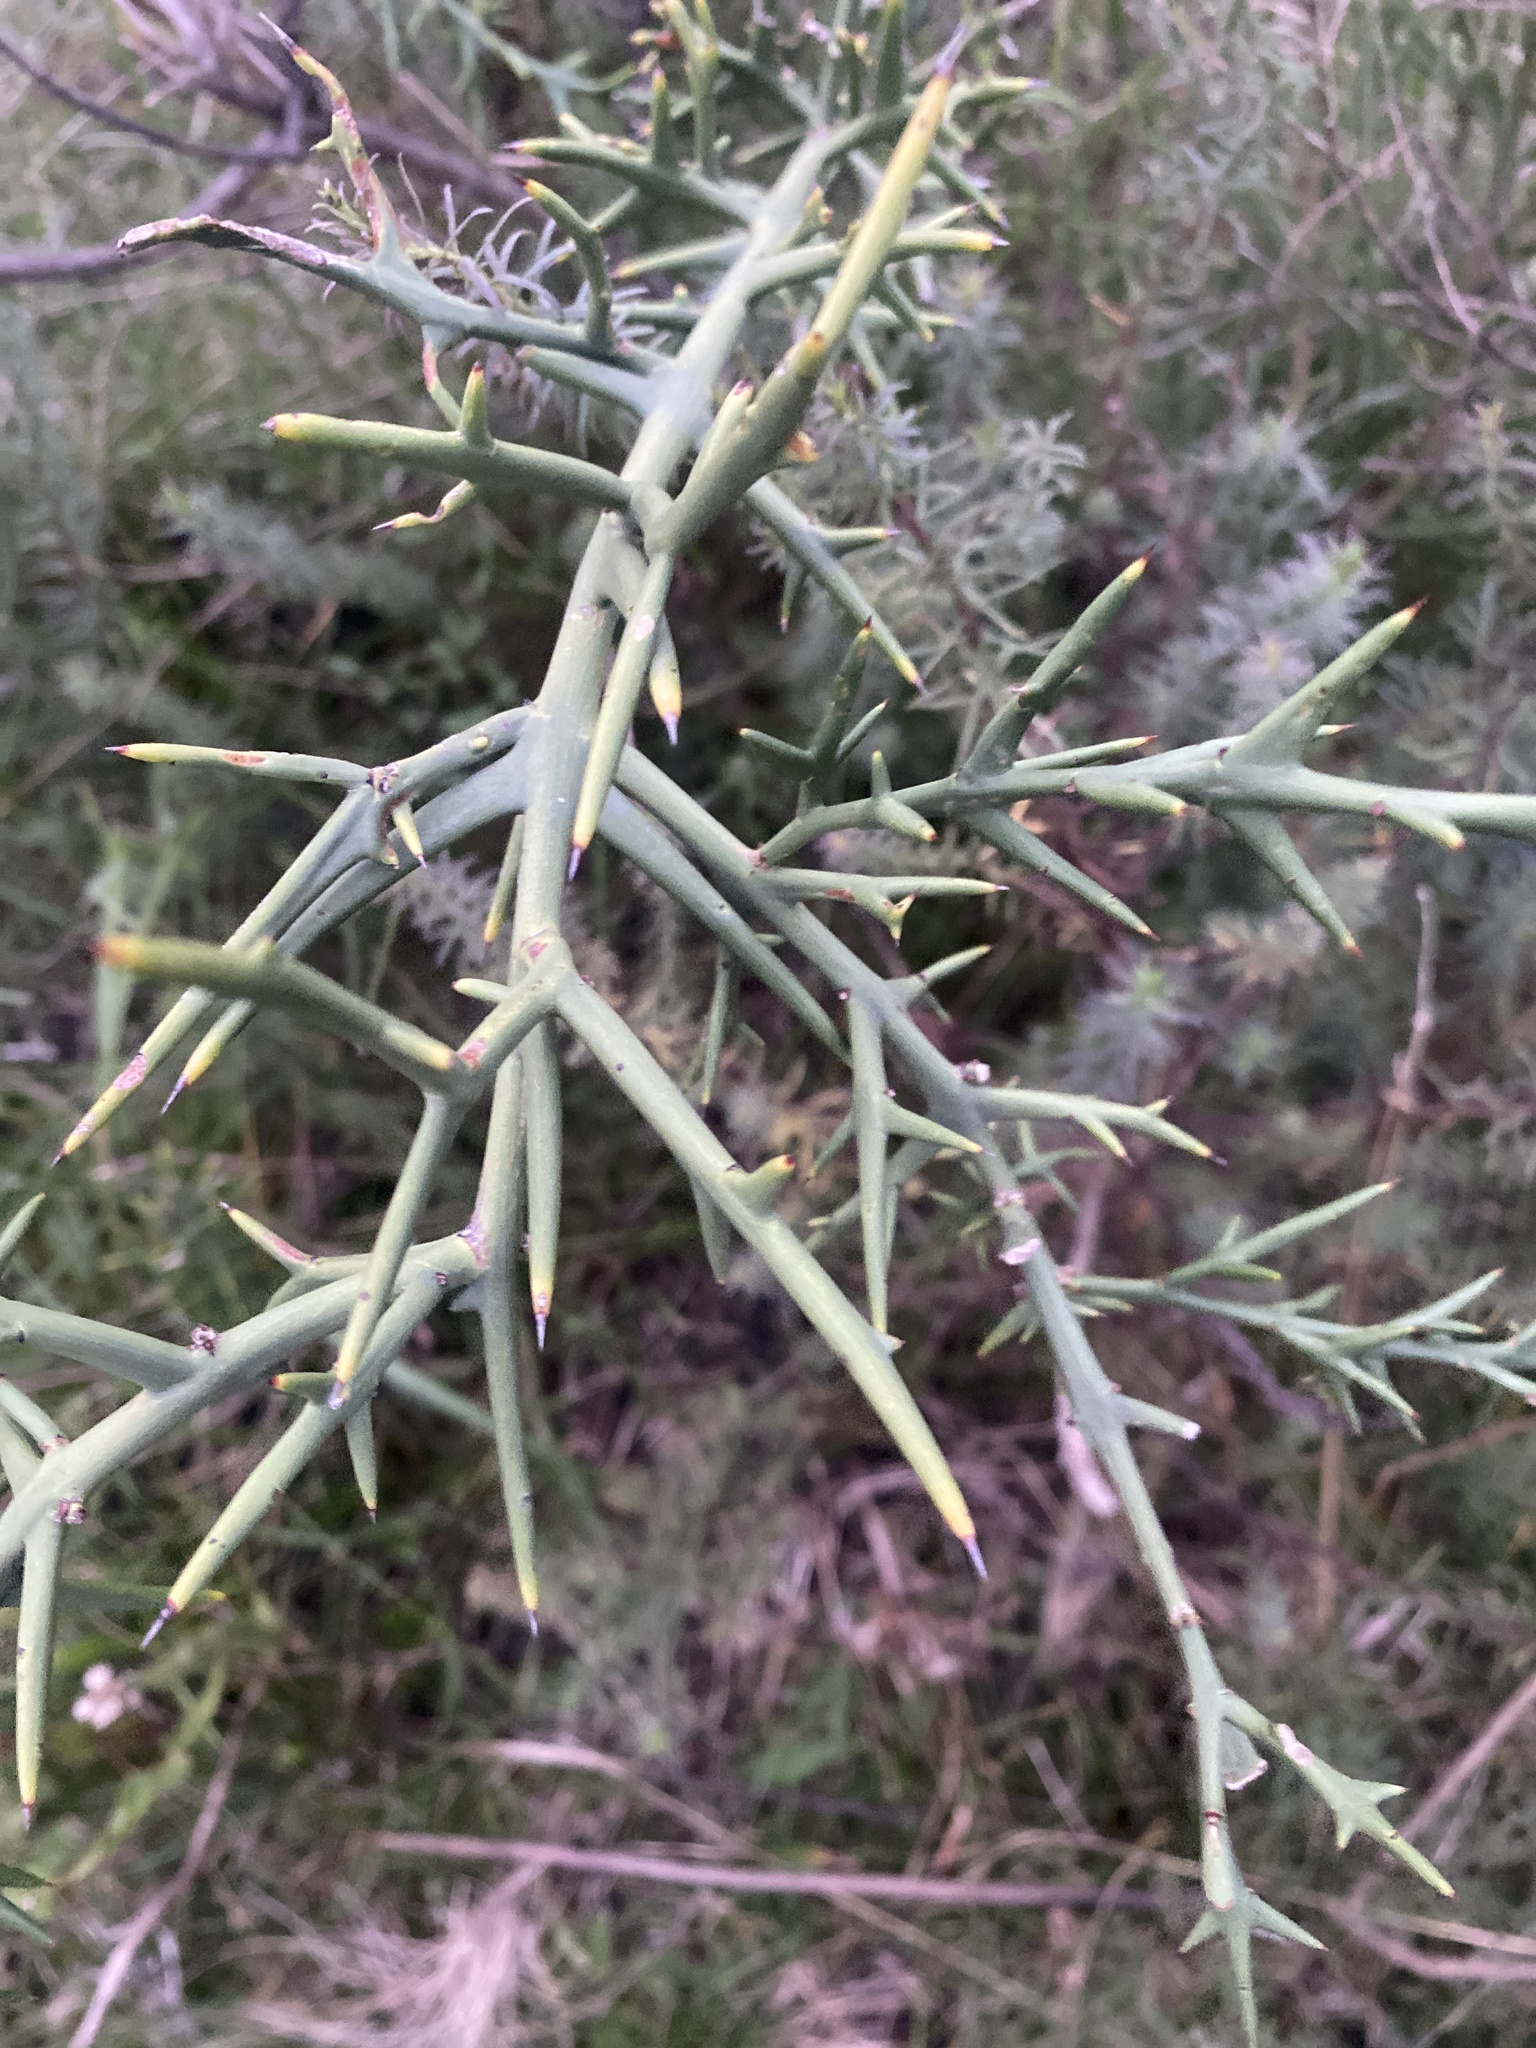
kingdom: Plantae
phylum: Tracheophyta
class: Magnoliopsida
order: Rosales
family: Rhamnaceae
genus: Colletia
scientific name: Colletia spinosissima
